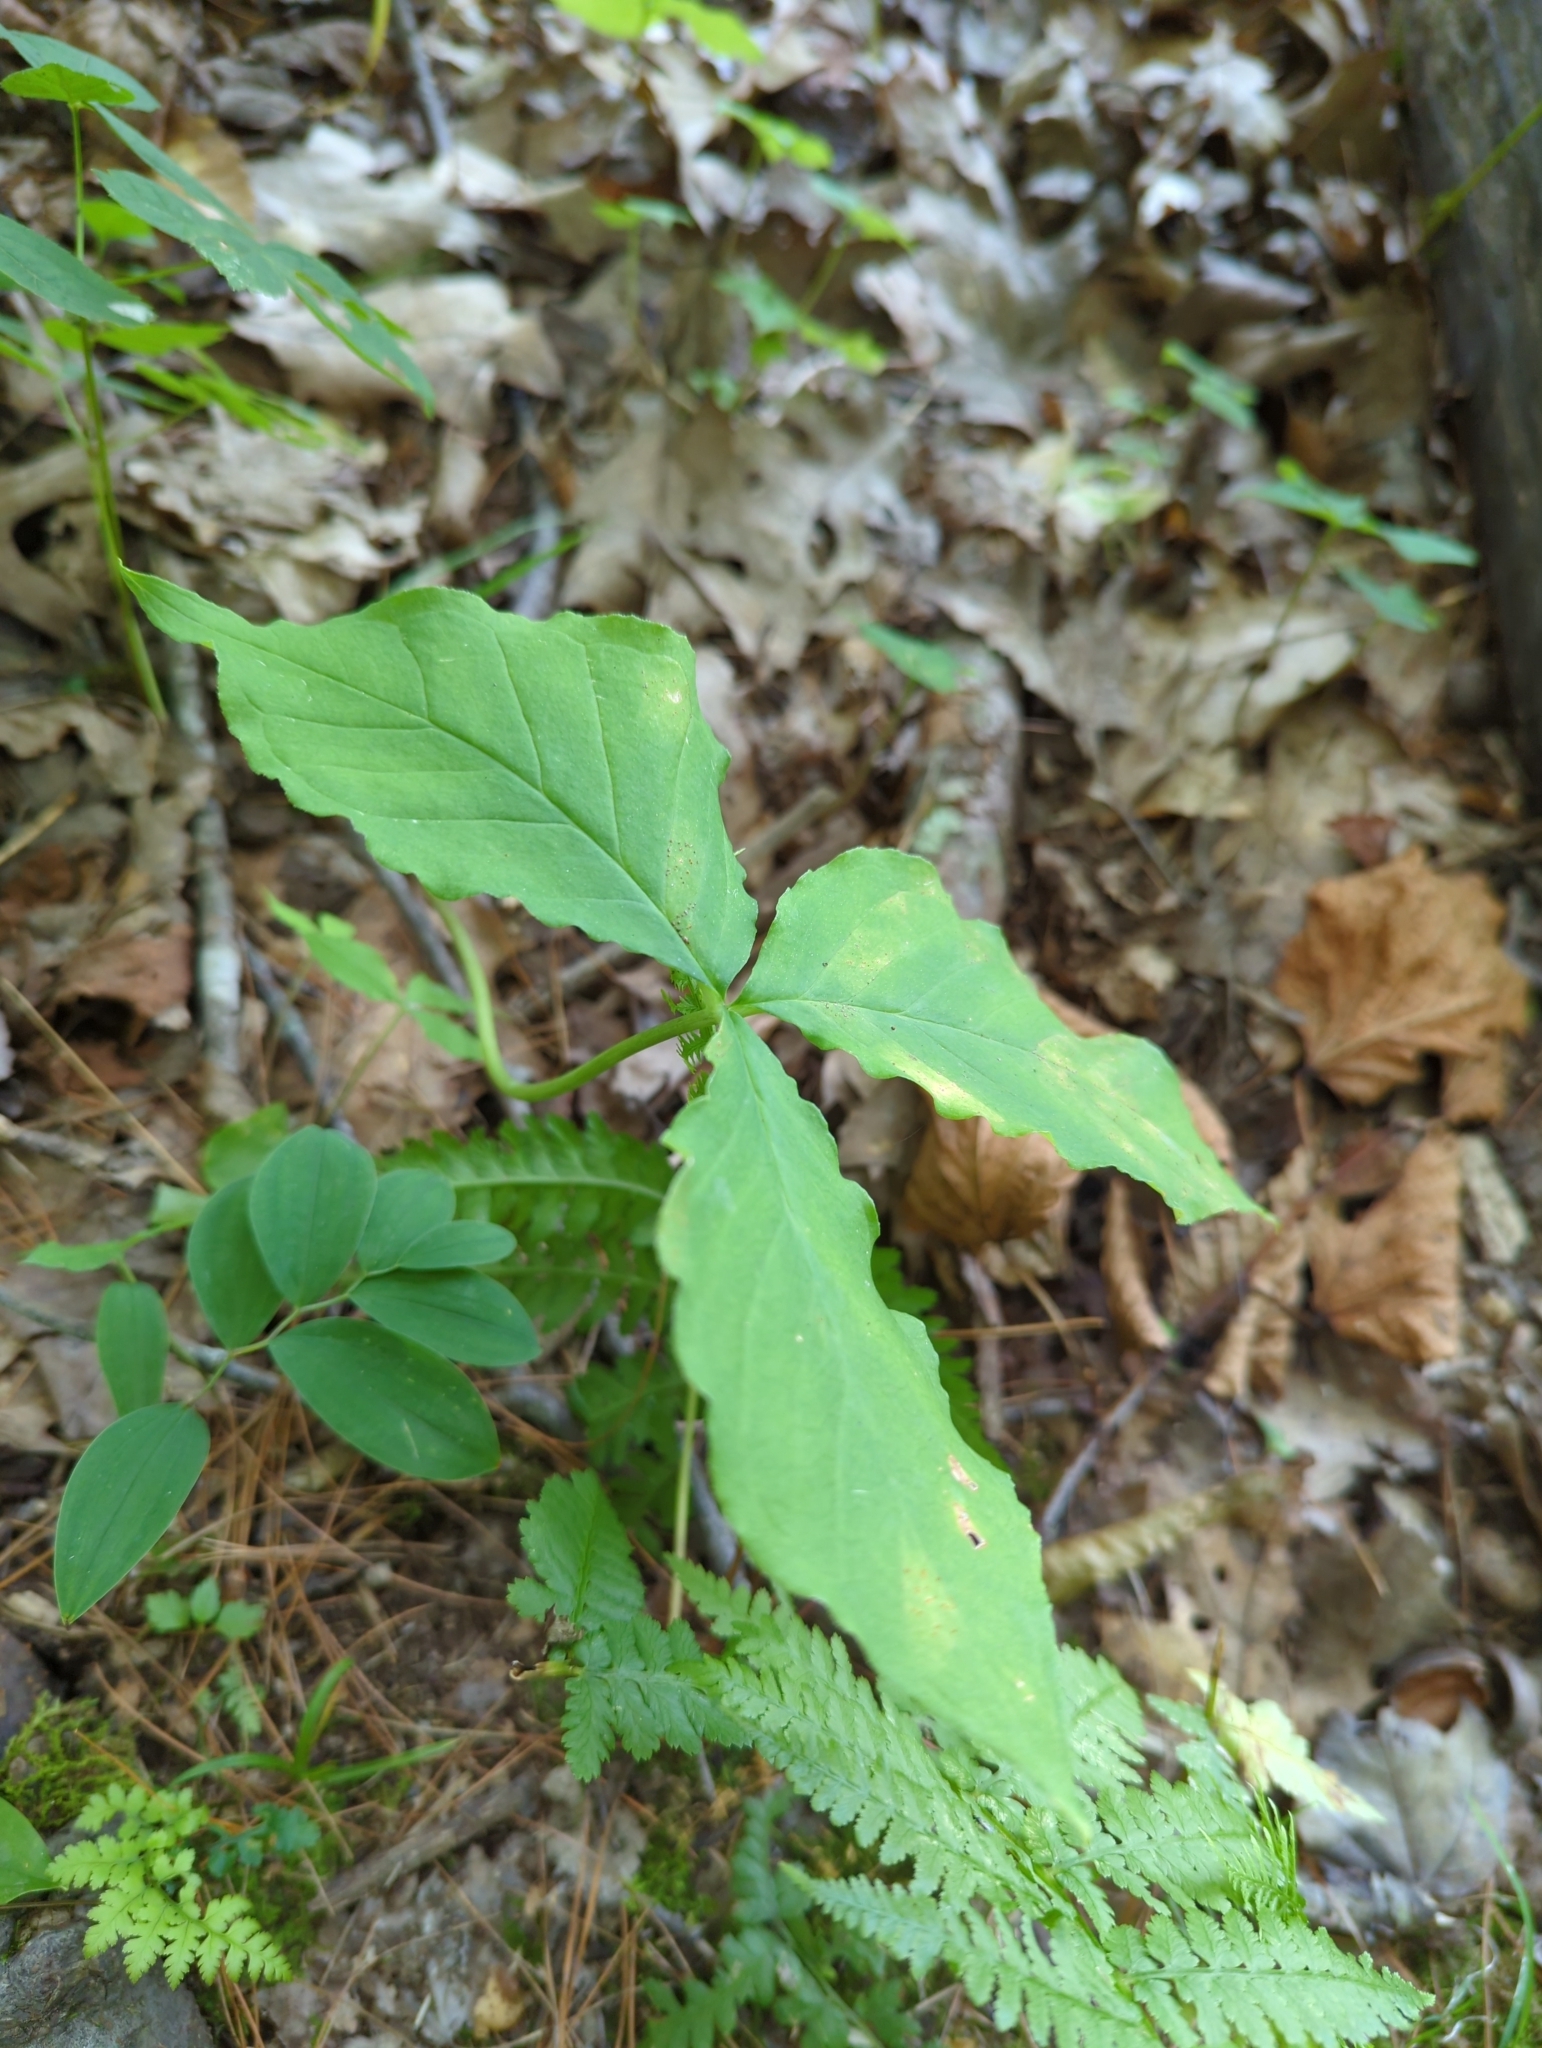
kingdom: Plantae
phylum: Tracheophyta
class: Liliopsida
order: Alismatales
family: Araceae
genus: Arisaema
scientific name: Arisaema triphyllum
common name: Jack-in-the-pulpit
